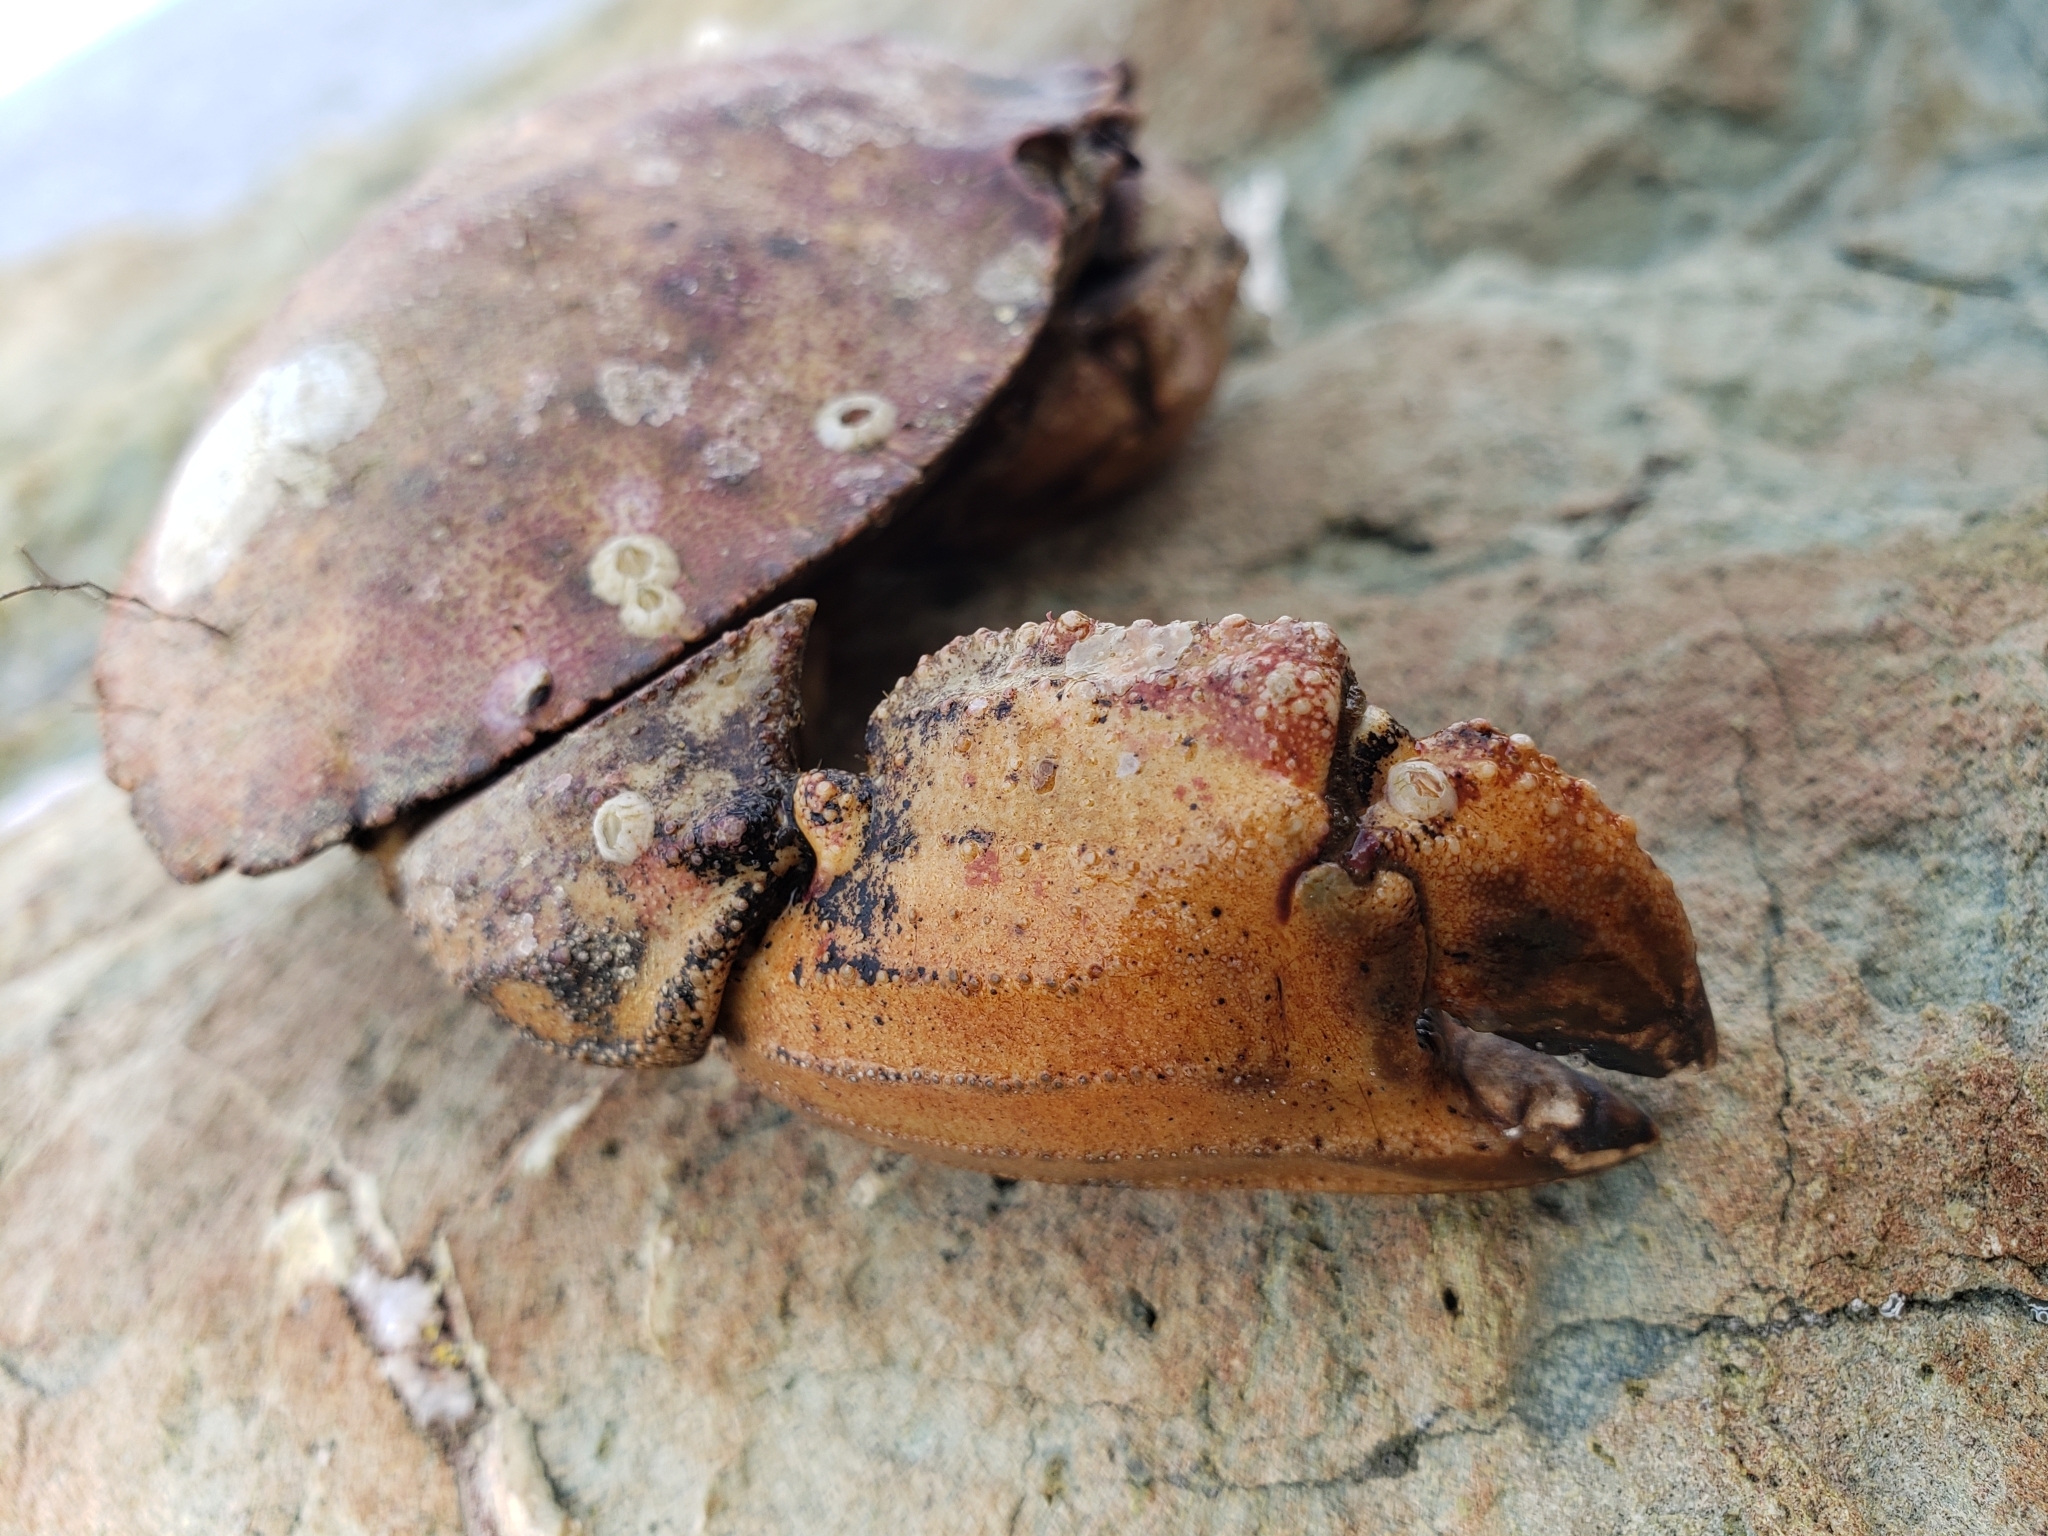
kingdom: Animalia
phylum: Arthropoda
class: Malacostraca
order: Decapoda
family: Cancridae
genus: Cancer
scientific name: Cancer borealis
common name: Jonah crab
